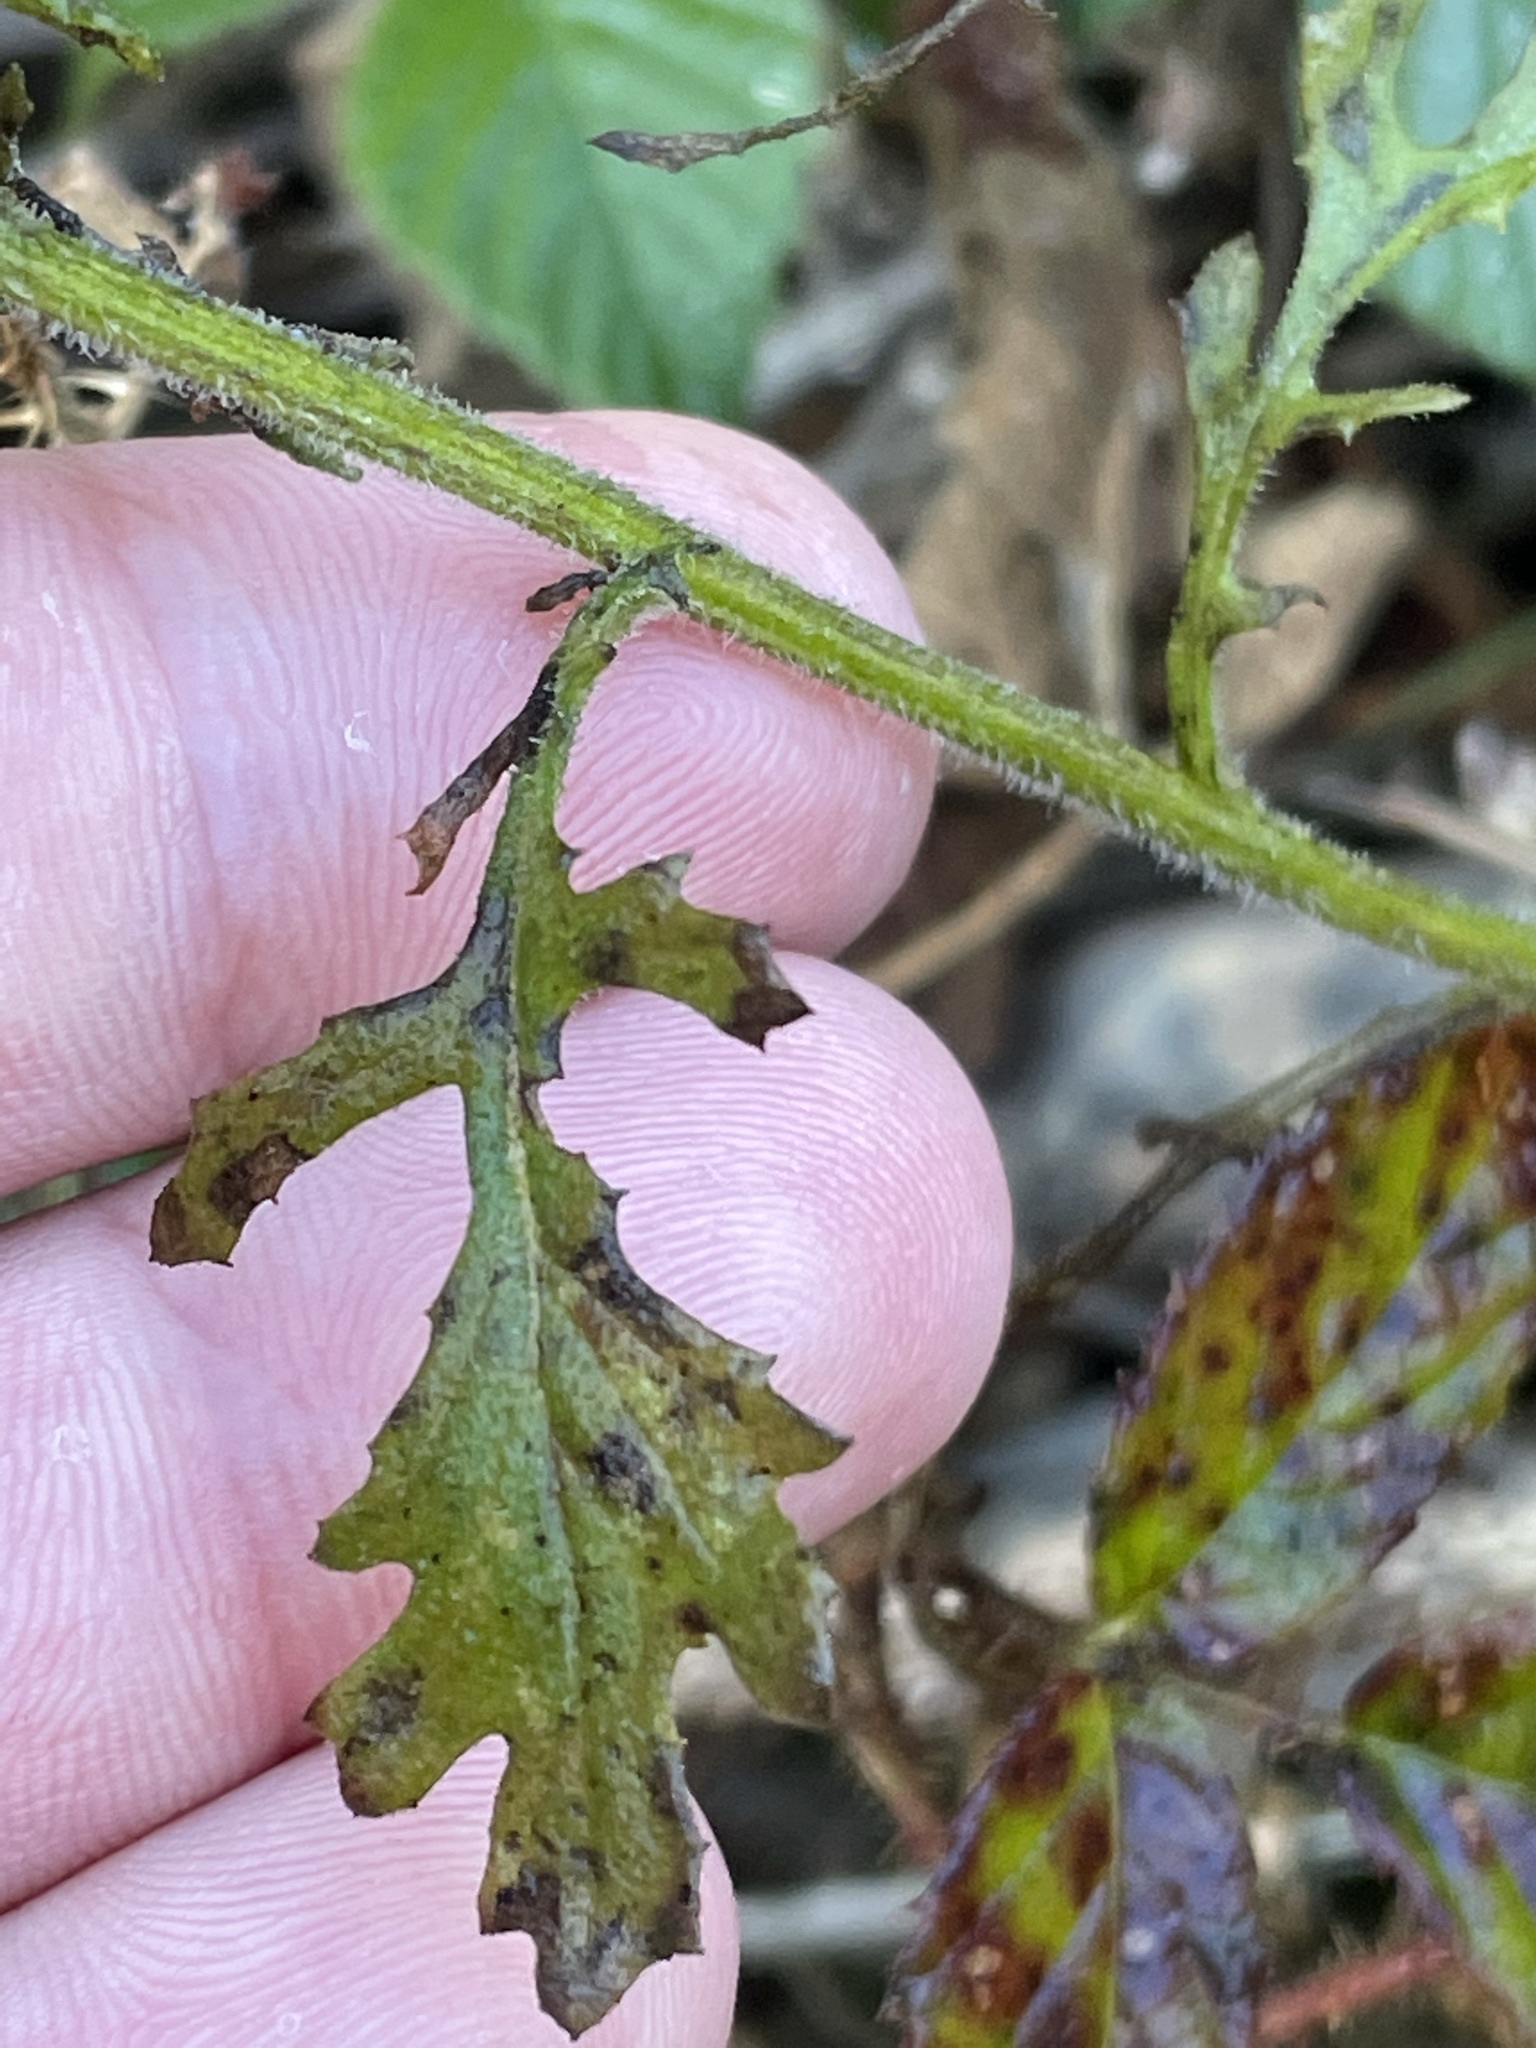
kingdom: Plantae
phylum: Tracheophyta
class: Magnoliopsida
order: Asterales
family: Asteraceae
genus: Senecio
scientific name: Senecio sylvaticus
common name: Woodland ragwort
